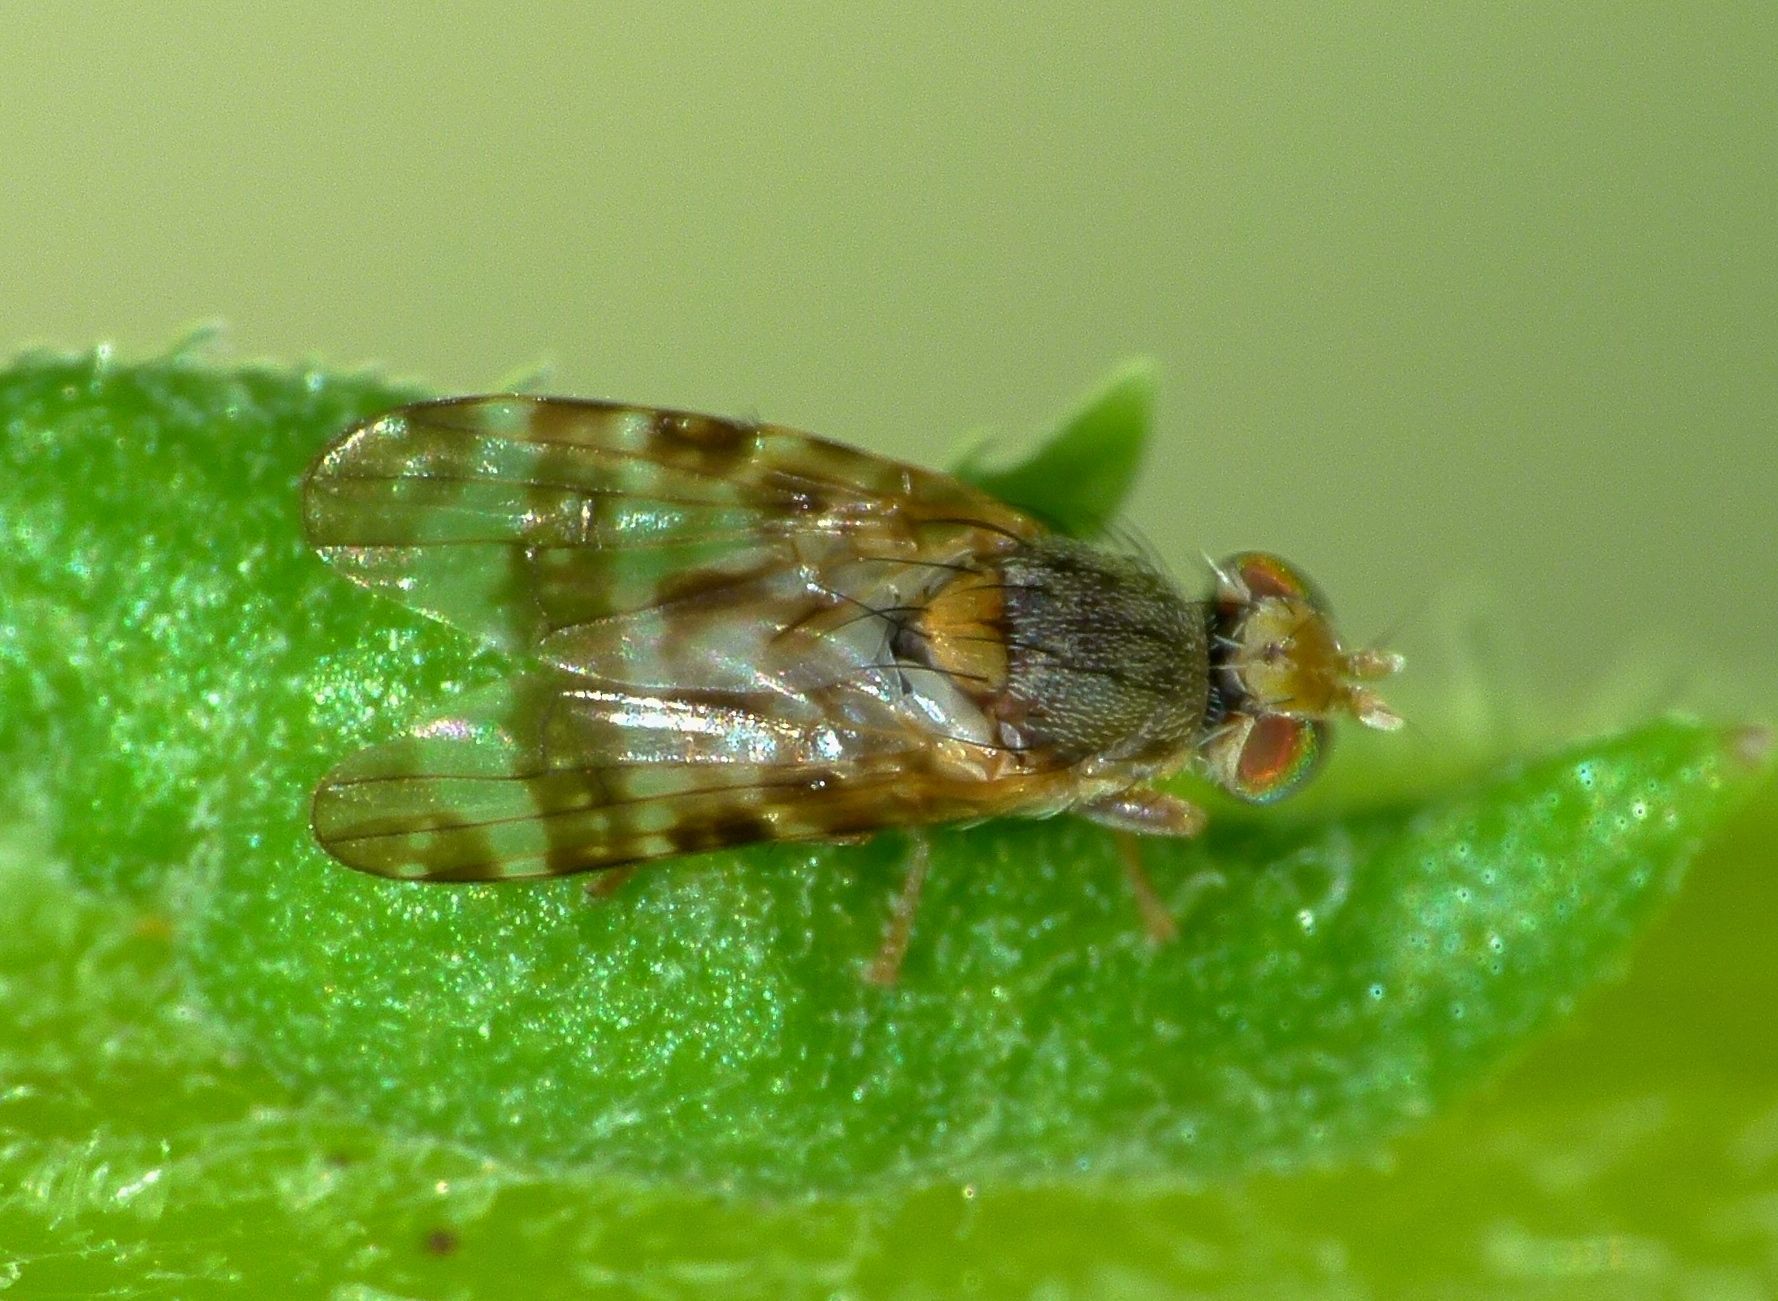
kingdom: Animalia
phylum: Arthropoda
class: Insecta
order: Diptera
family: Tephritidae
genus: Sphenella
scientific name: Sphenella
